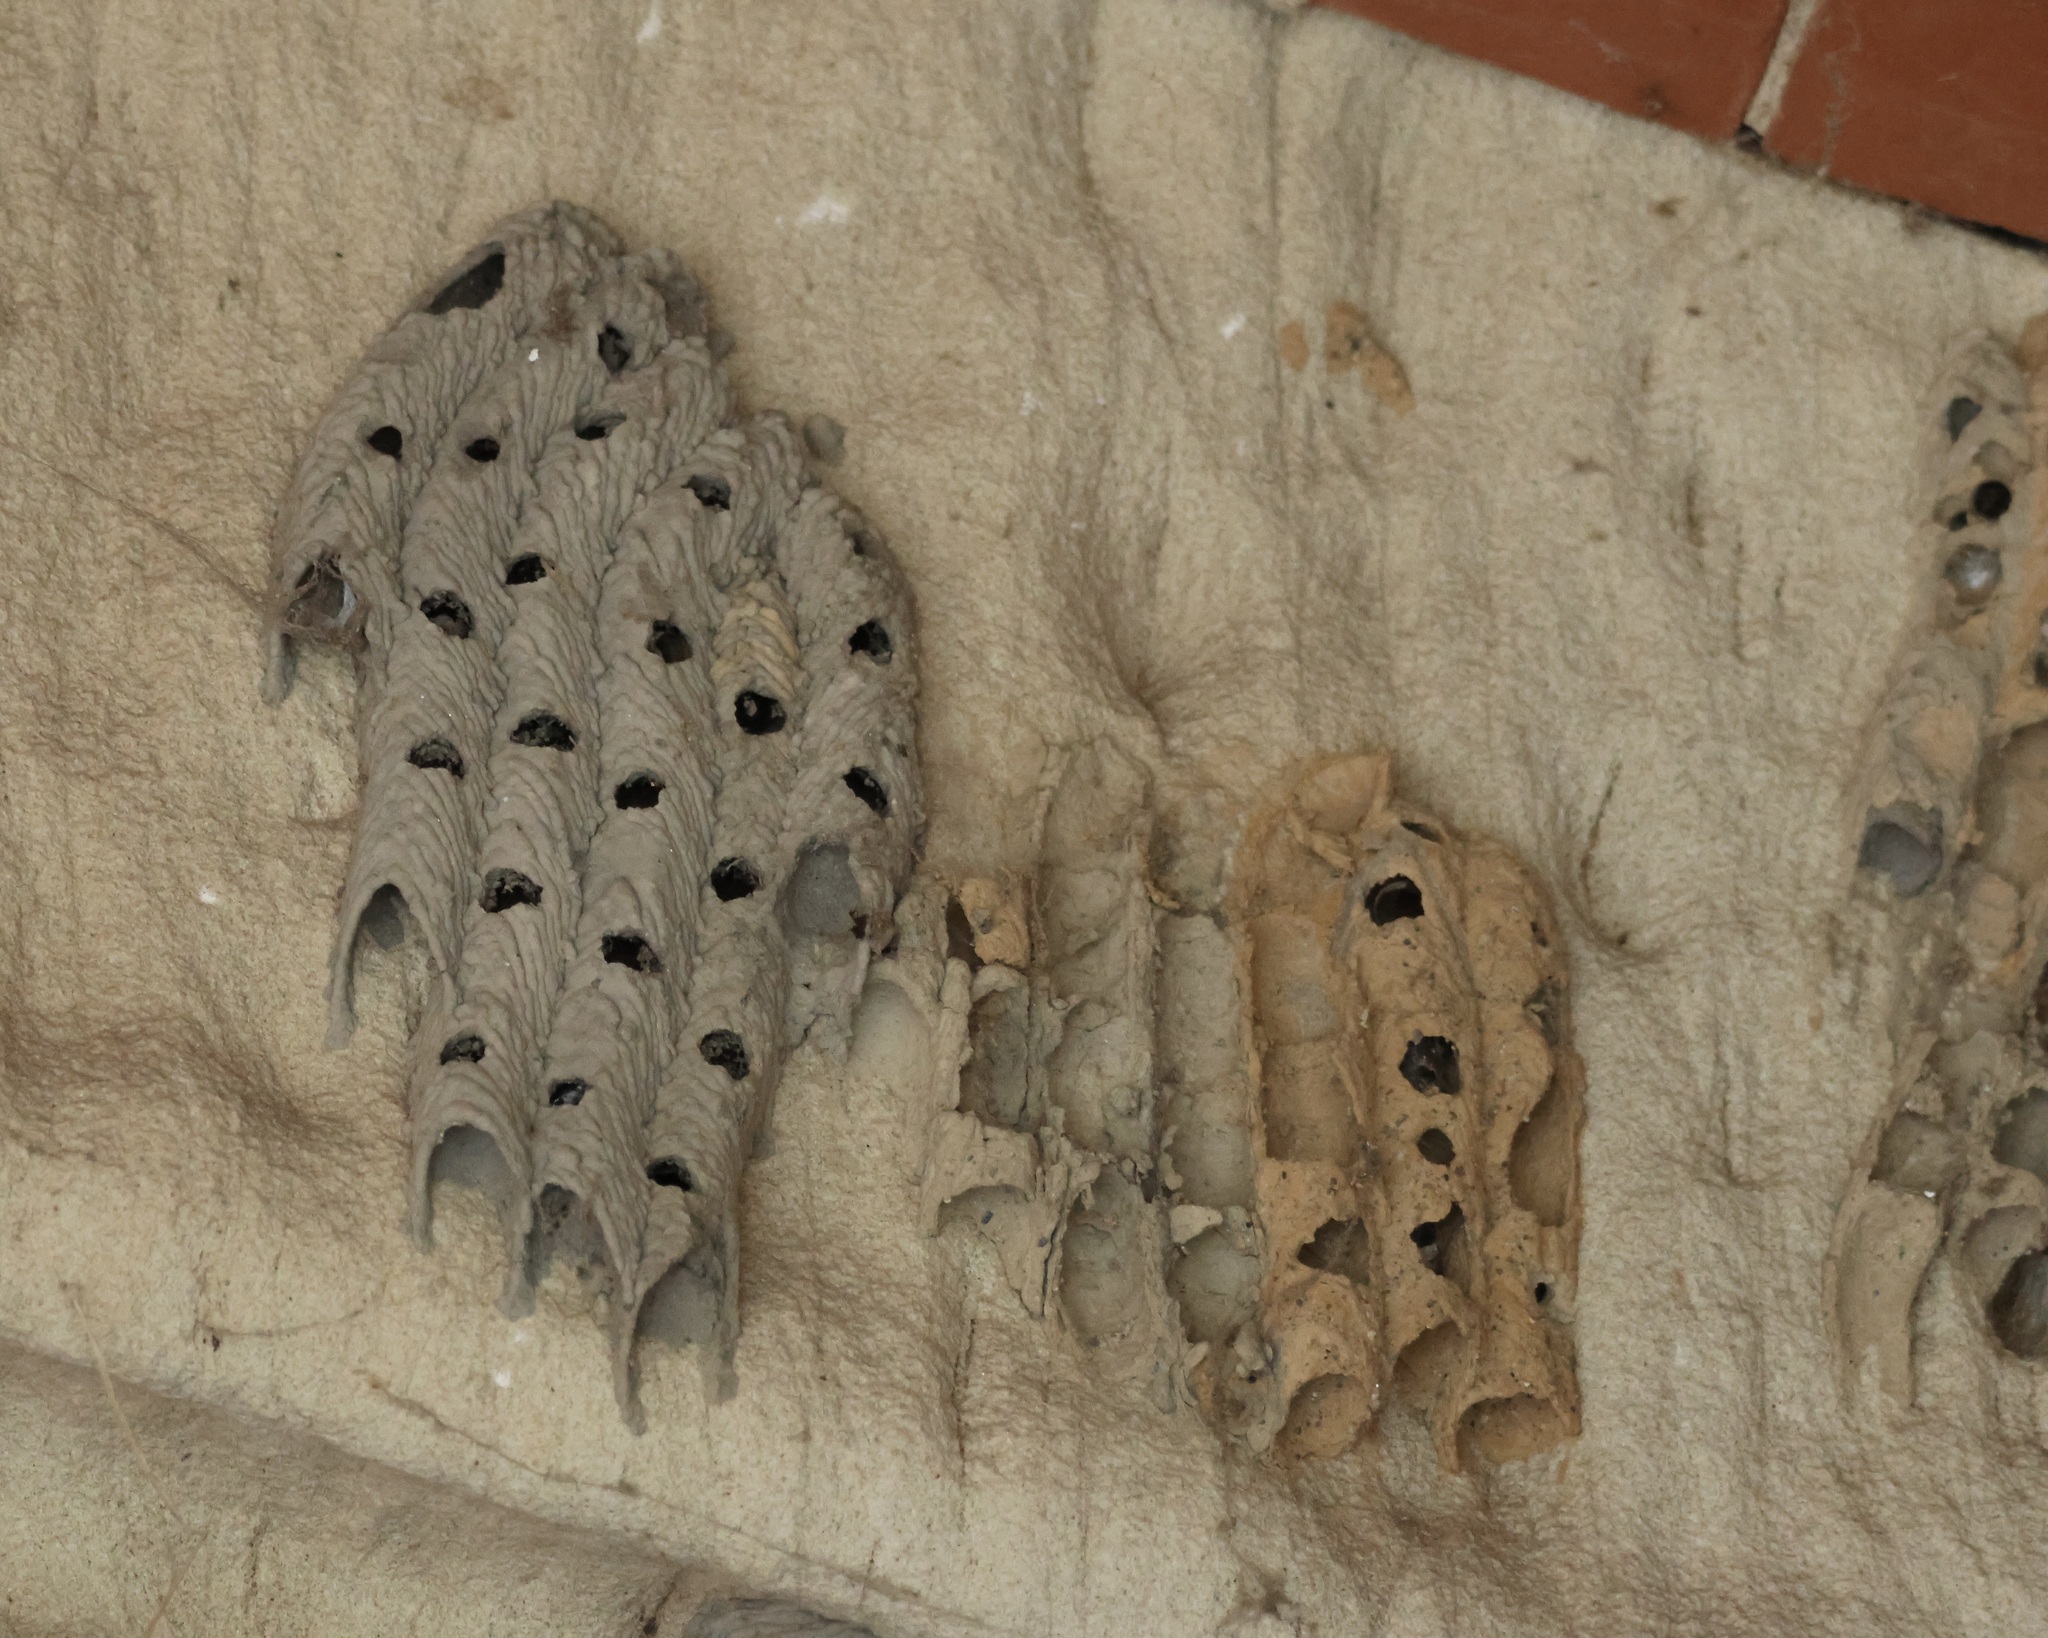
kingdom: Animalia
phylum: Arthropoda
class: Insecta
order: Hymenoptera
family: Crabronidae
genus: Trypoxylon
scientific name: Trypoxylon politum
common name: Organ-pipe mud-dauber wasp
